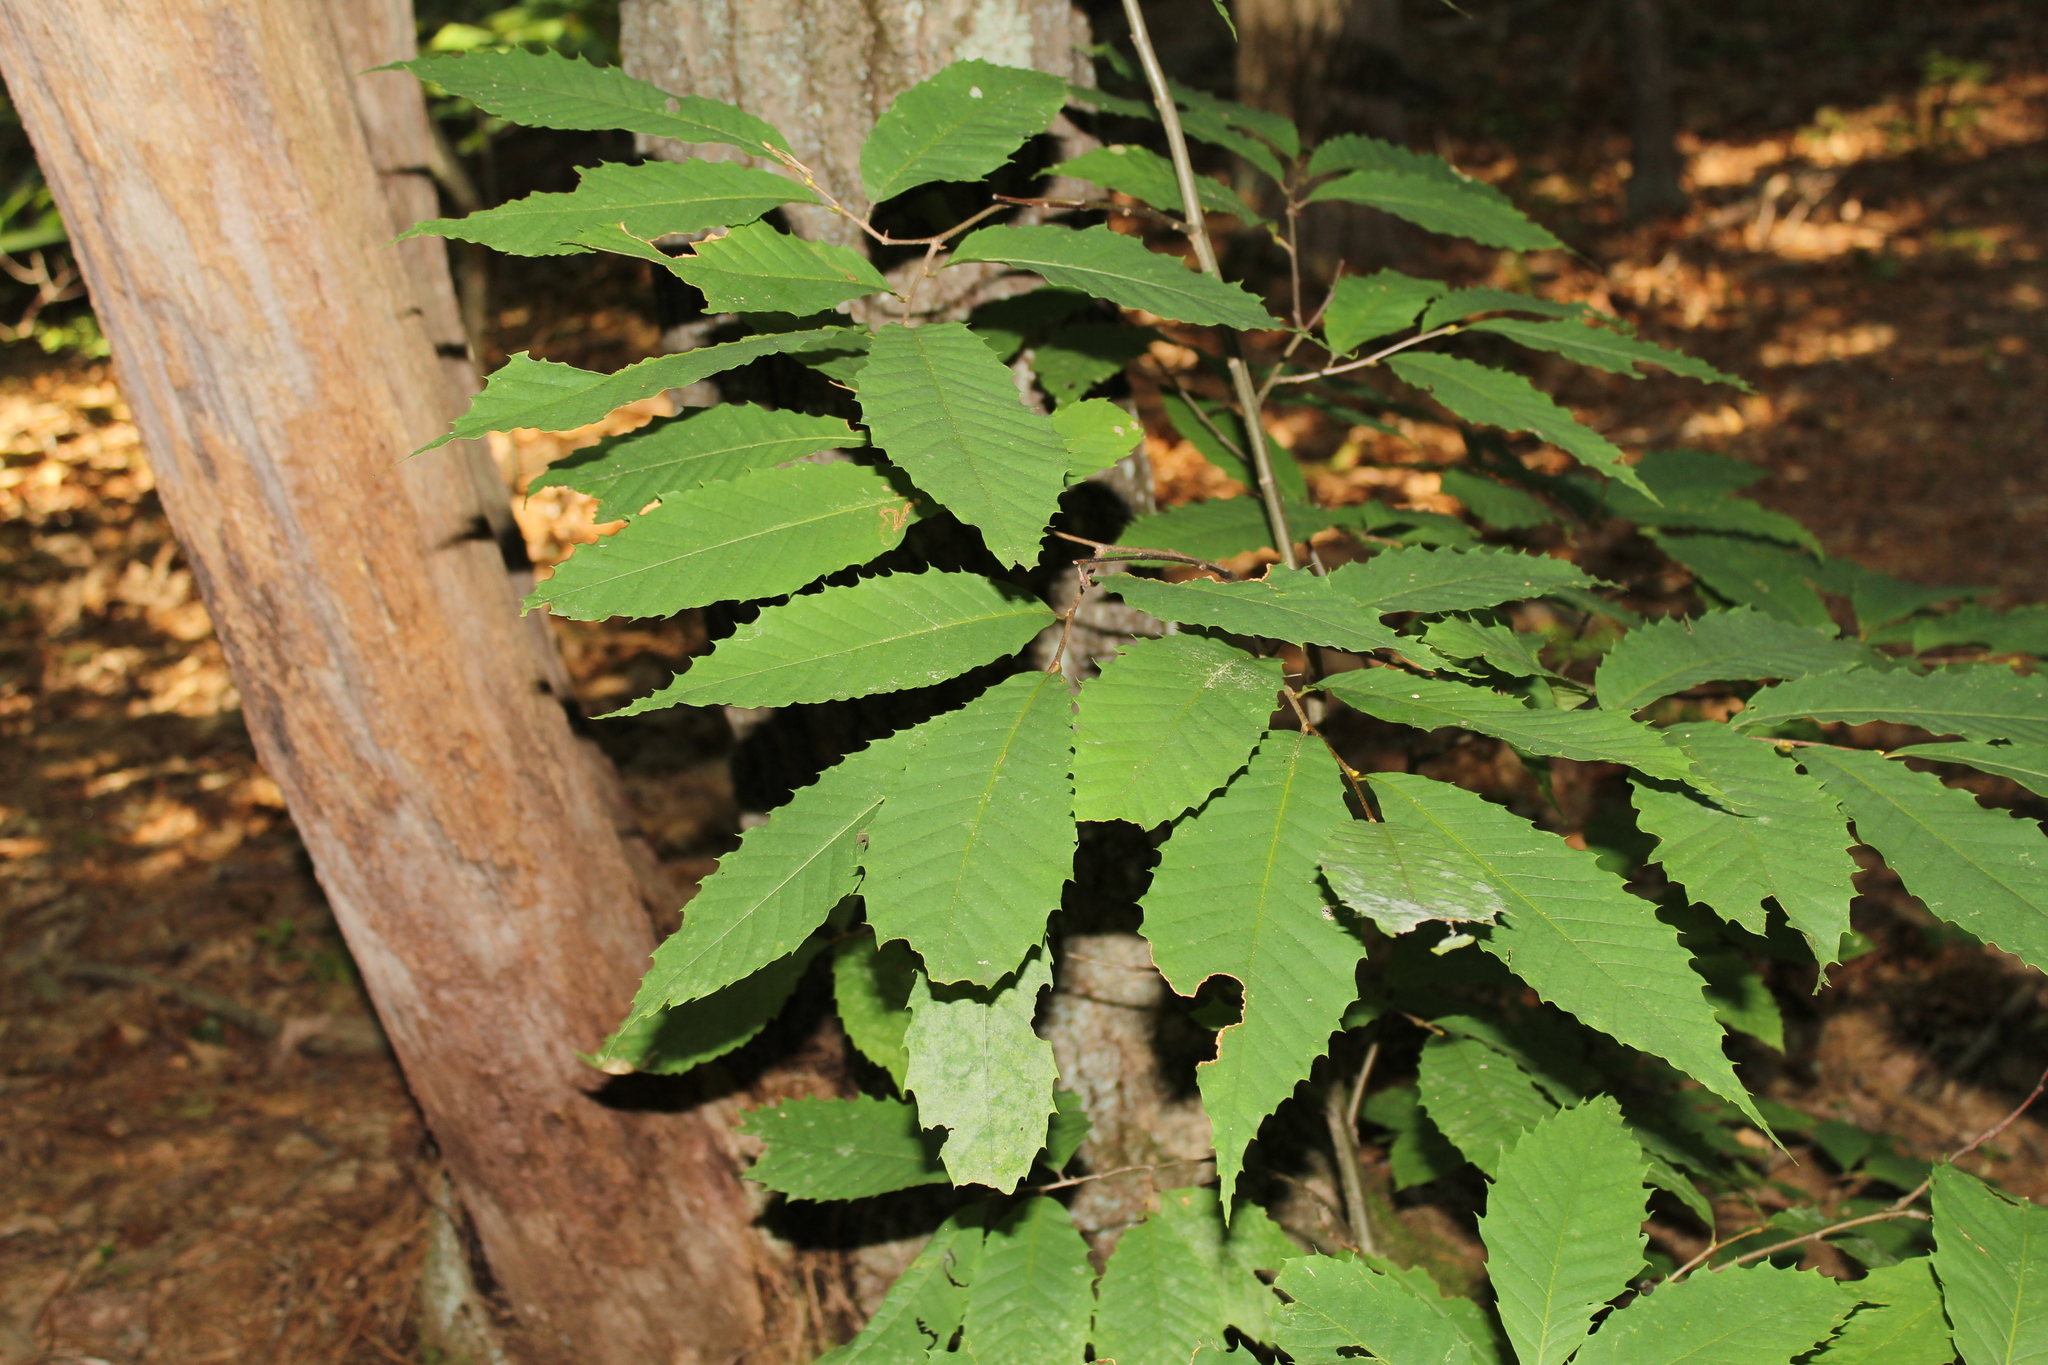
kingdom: Plantae
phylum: Tracheophyta
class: Magnoliopsida
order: Fagales
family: Fagaceae
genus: Castanea
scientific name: Castanea dentata
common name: American chestnut
